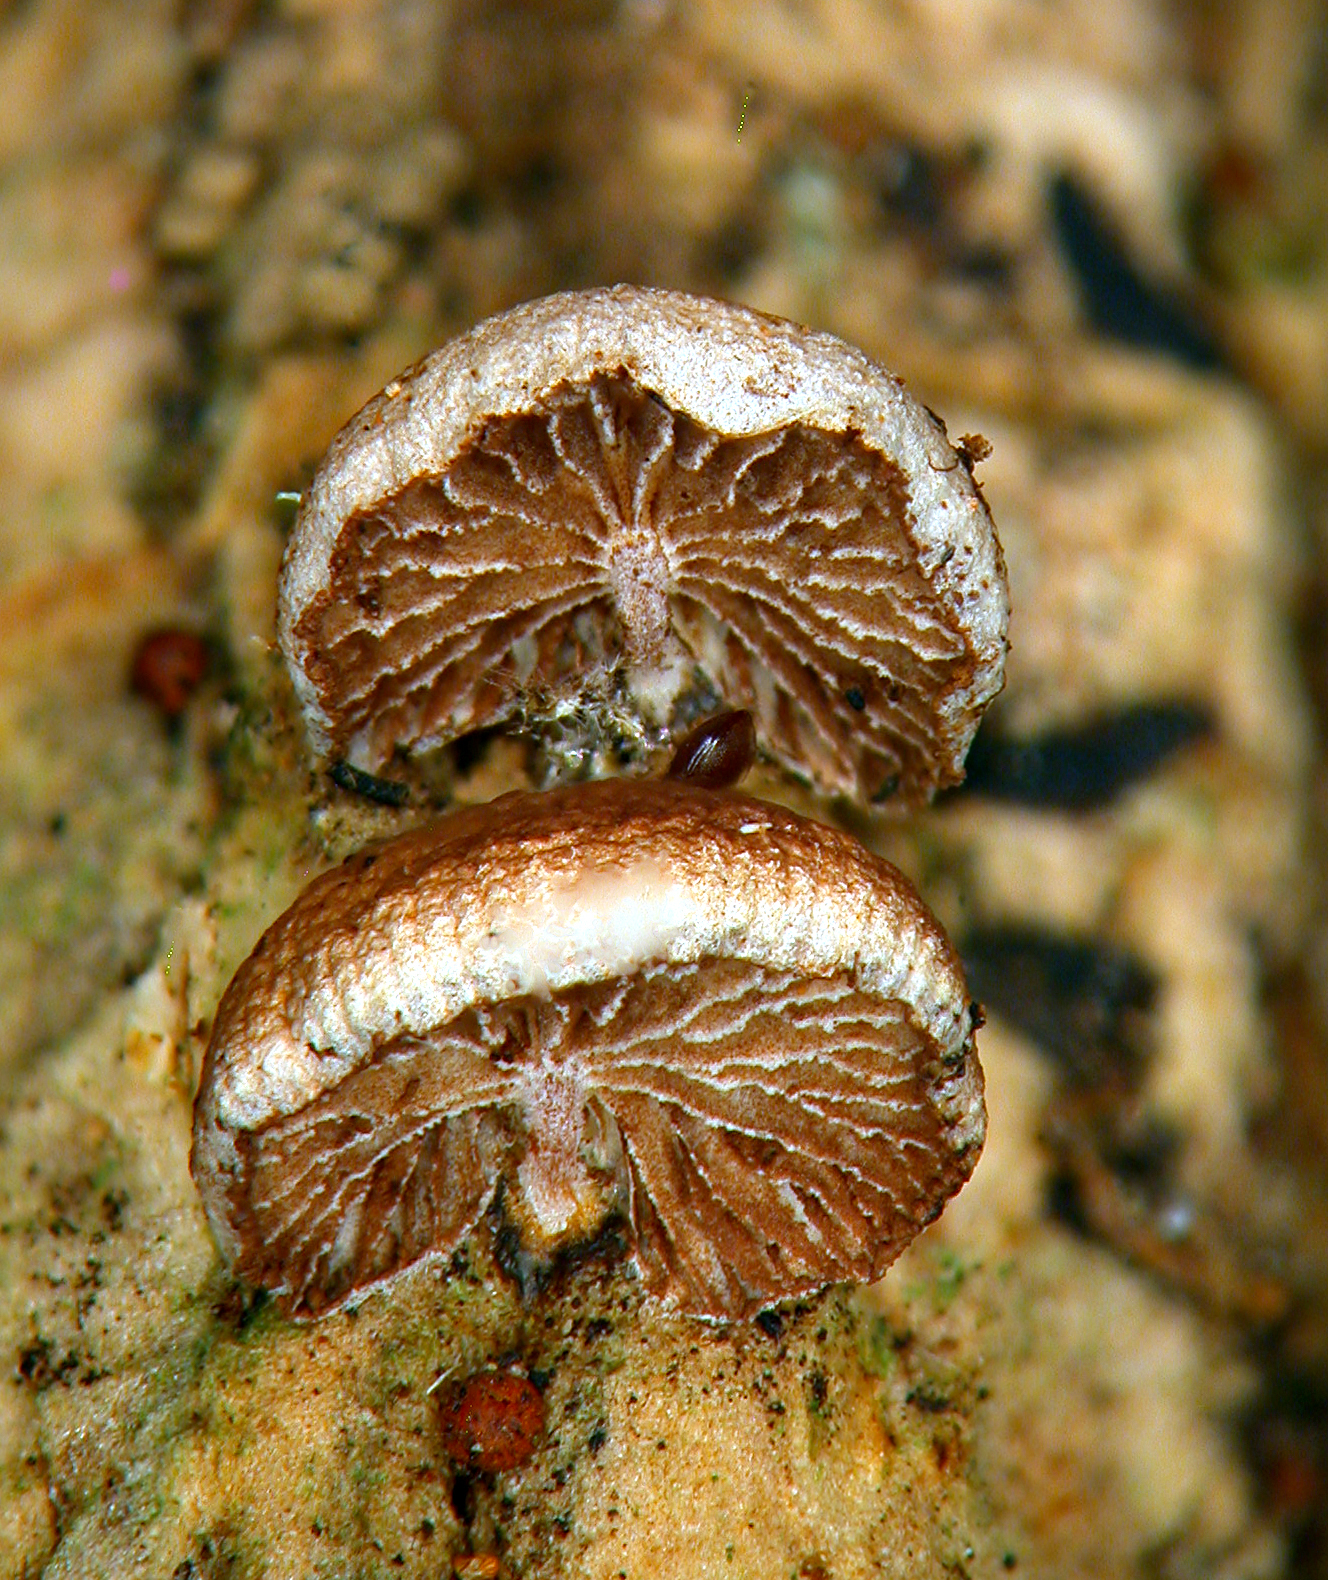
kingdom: Fungi
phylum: Basidiomycota
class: Agaricomycetes
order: Agaricales
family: Strophariaceae
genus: Deconica
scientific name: Deconica vorax
